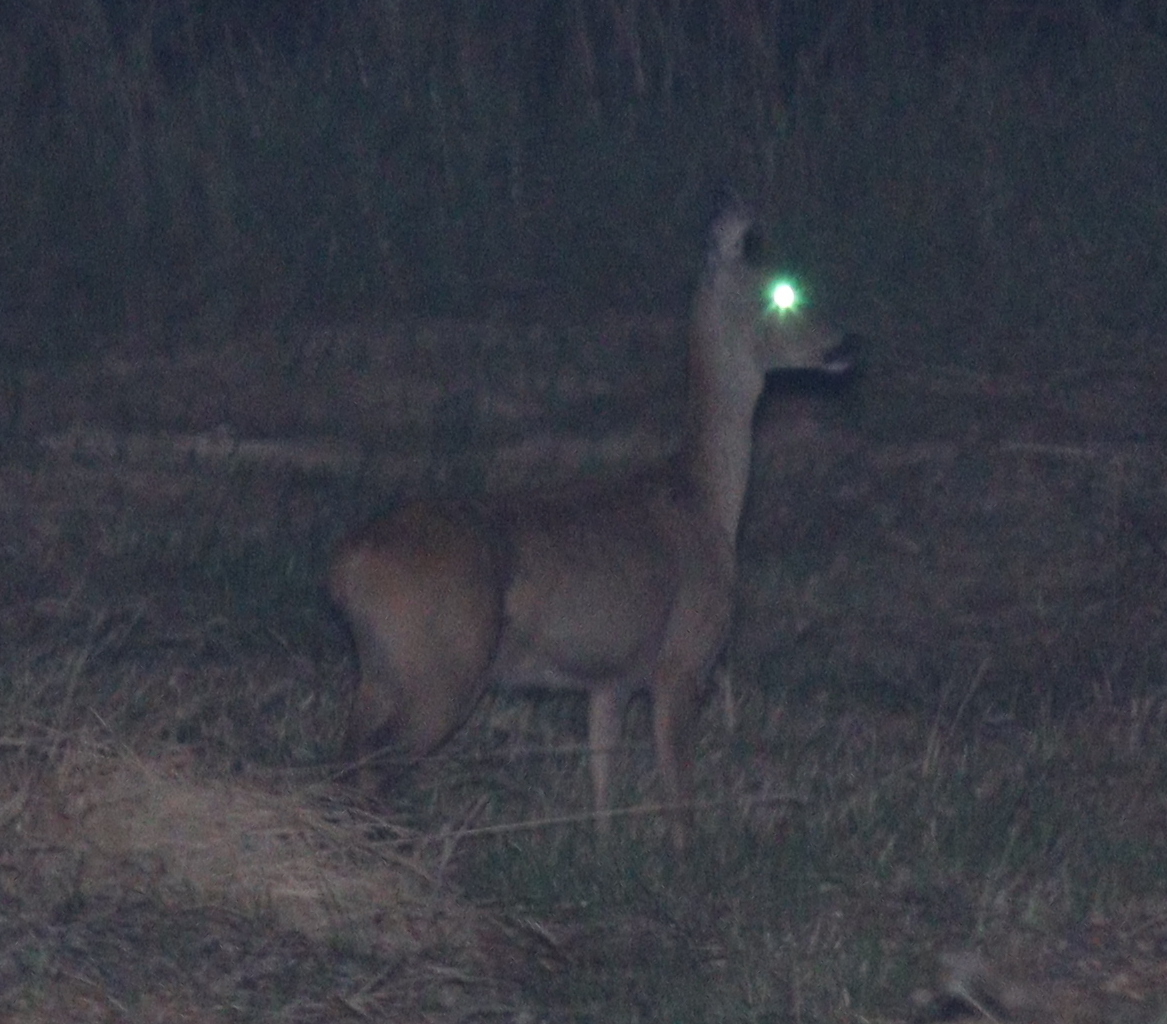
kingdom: Animalia
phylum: Chordata
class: Mammalia
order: Artiodactyla
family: Cervidae
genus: Capreolus
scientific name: Capreolus capreolus
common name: Western roe deer
